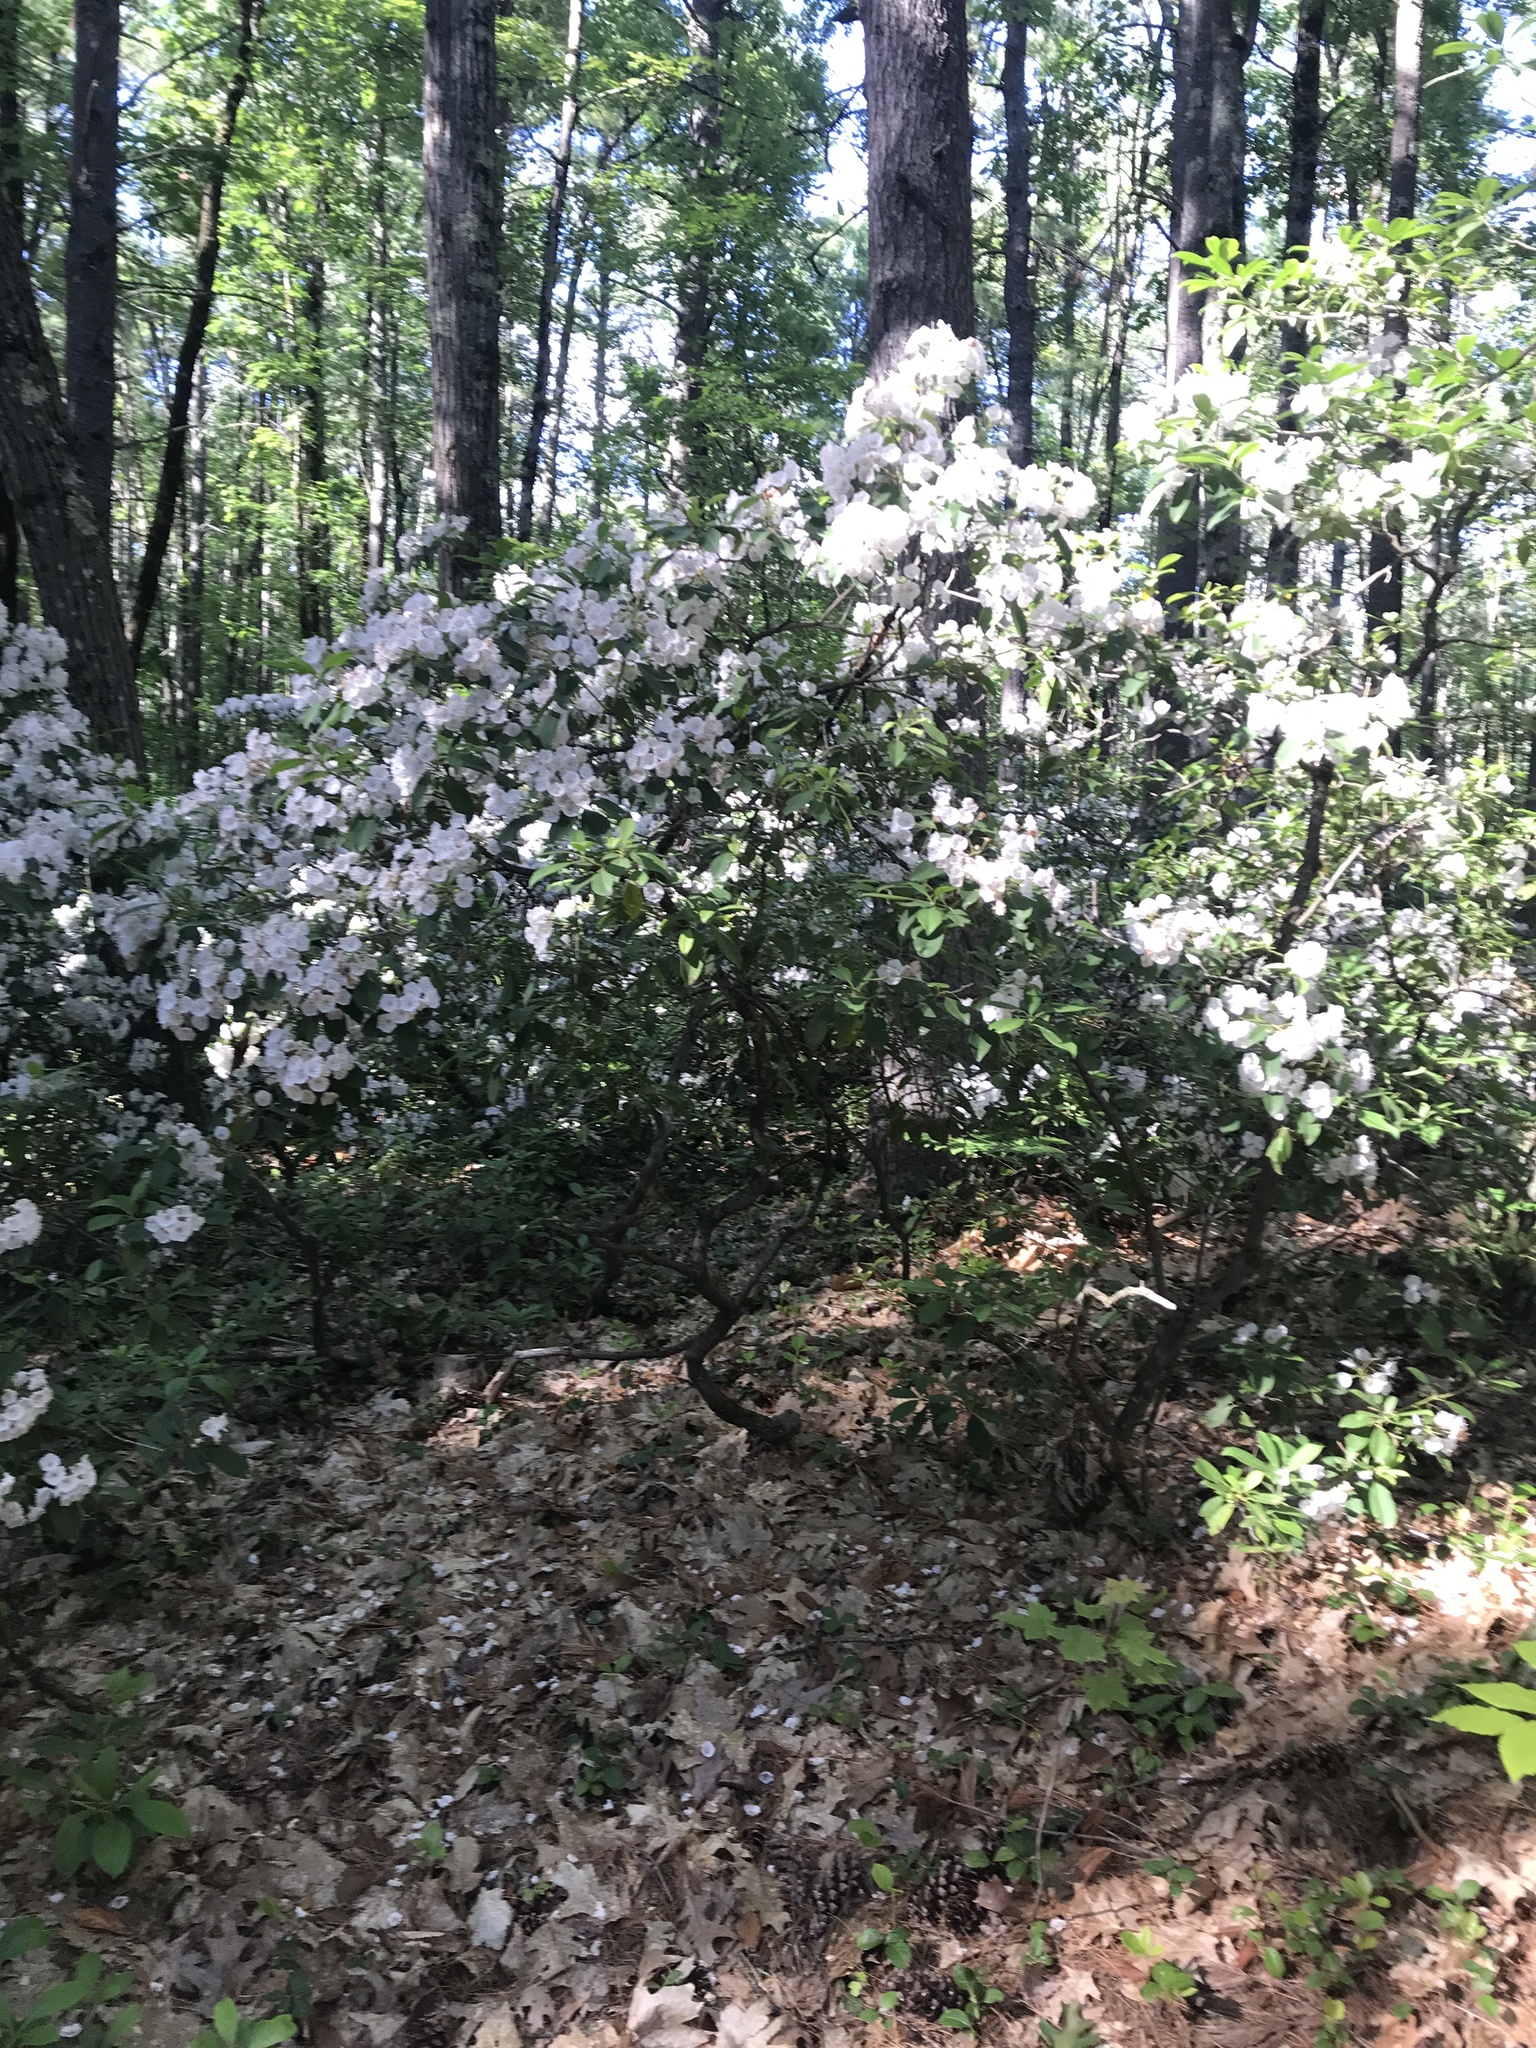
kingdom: Plantae
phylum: Tracheophyta
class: Magnoliopsida
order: Ericales
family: Ericaceae
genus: Kalmia
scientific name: Kalmia latifolia
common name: Mountain-laurel
